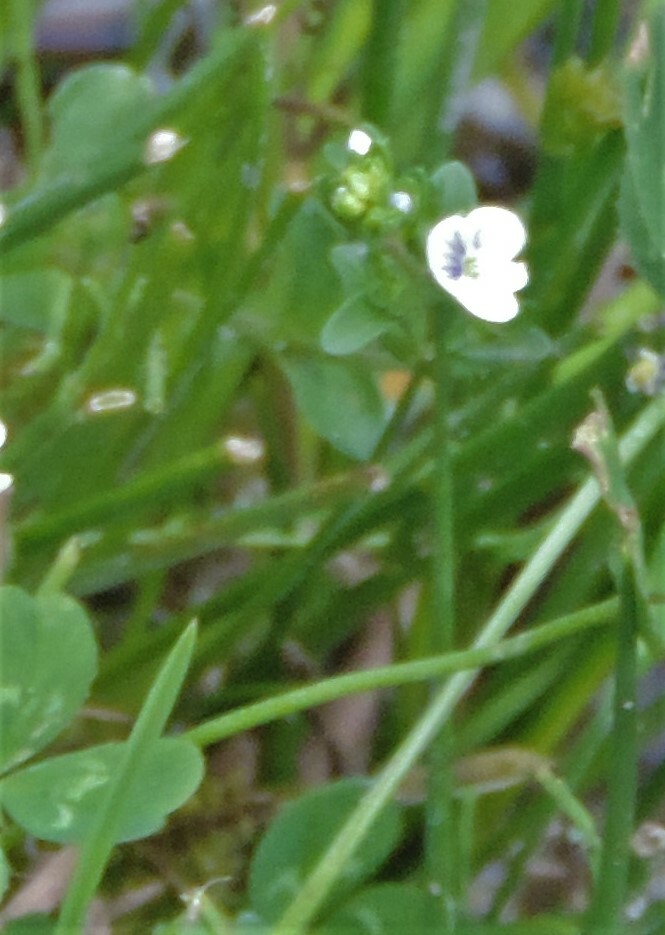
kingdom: Plantae
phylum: Tracheophyta
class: Magnoliopsida
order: Lamiales
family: Plantaginaceae
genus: Veronica
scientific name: Veronica serpyllifolia
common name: Thyme-leaved speedwell
